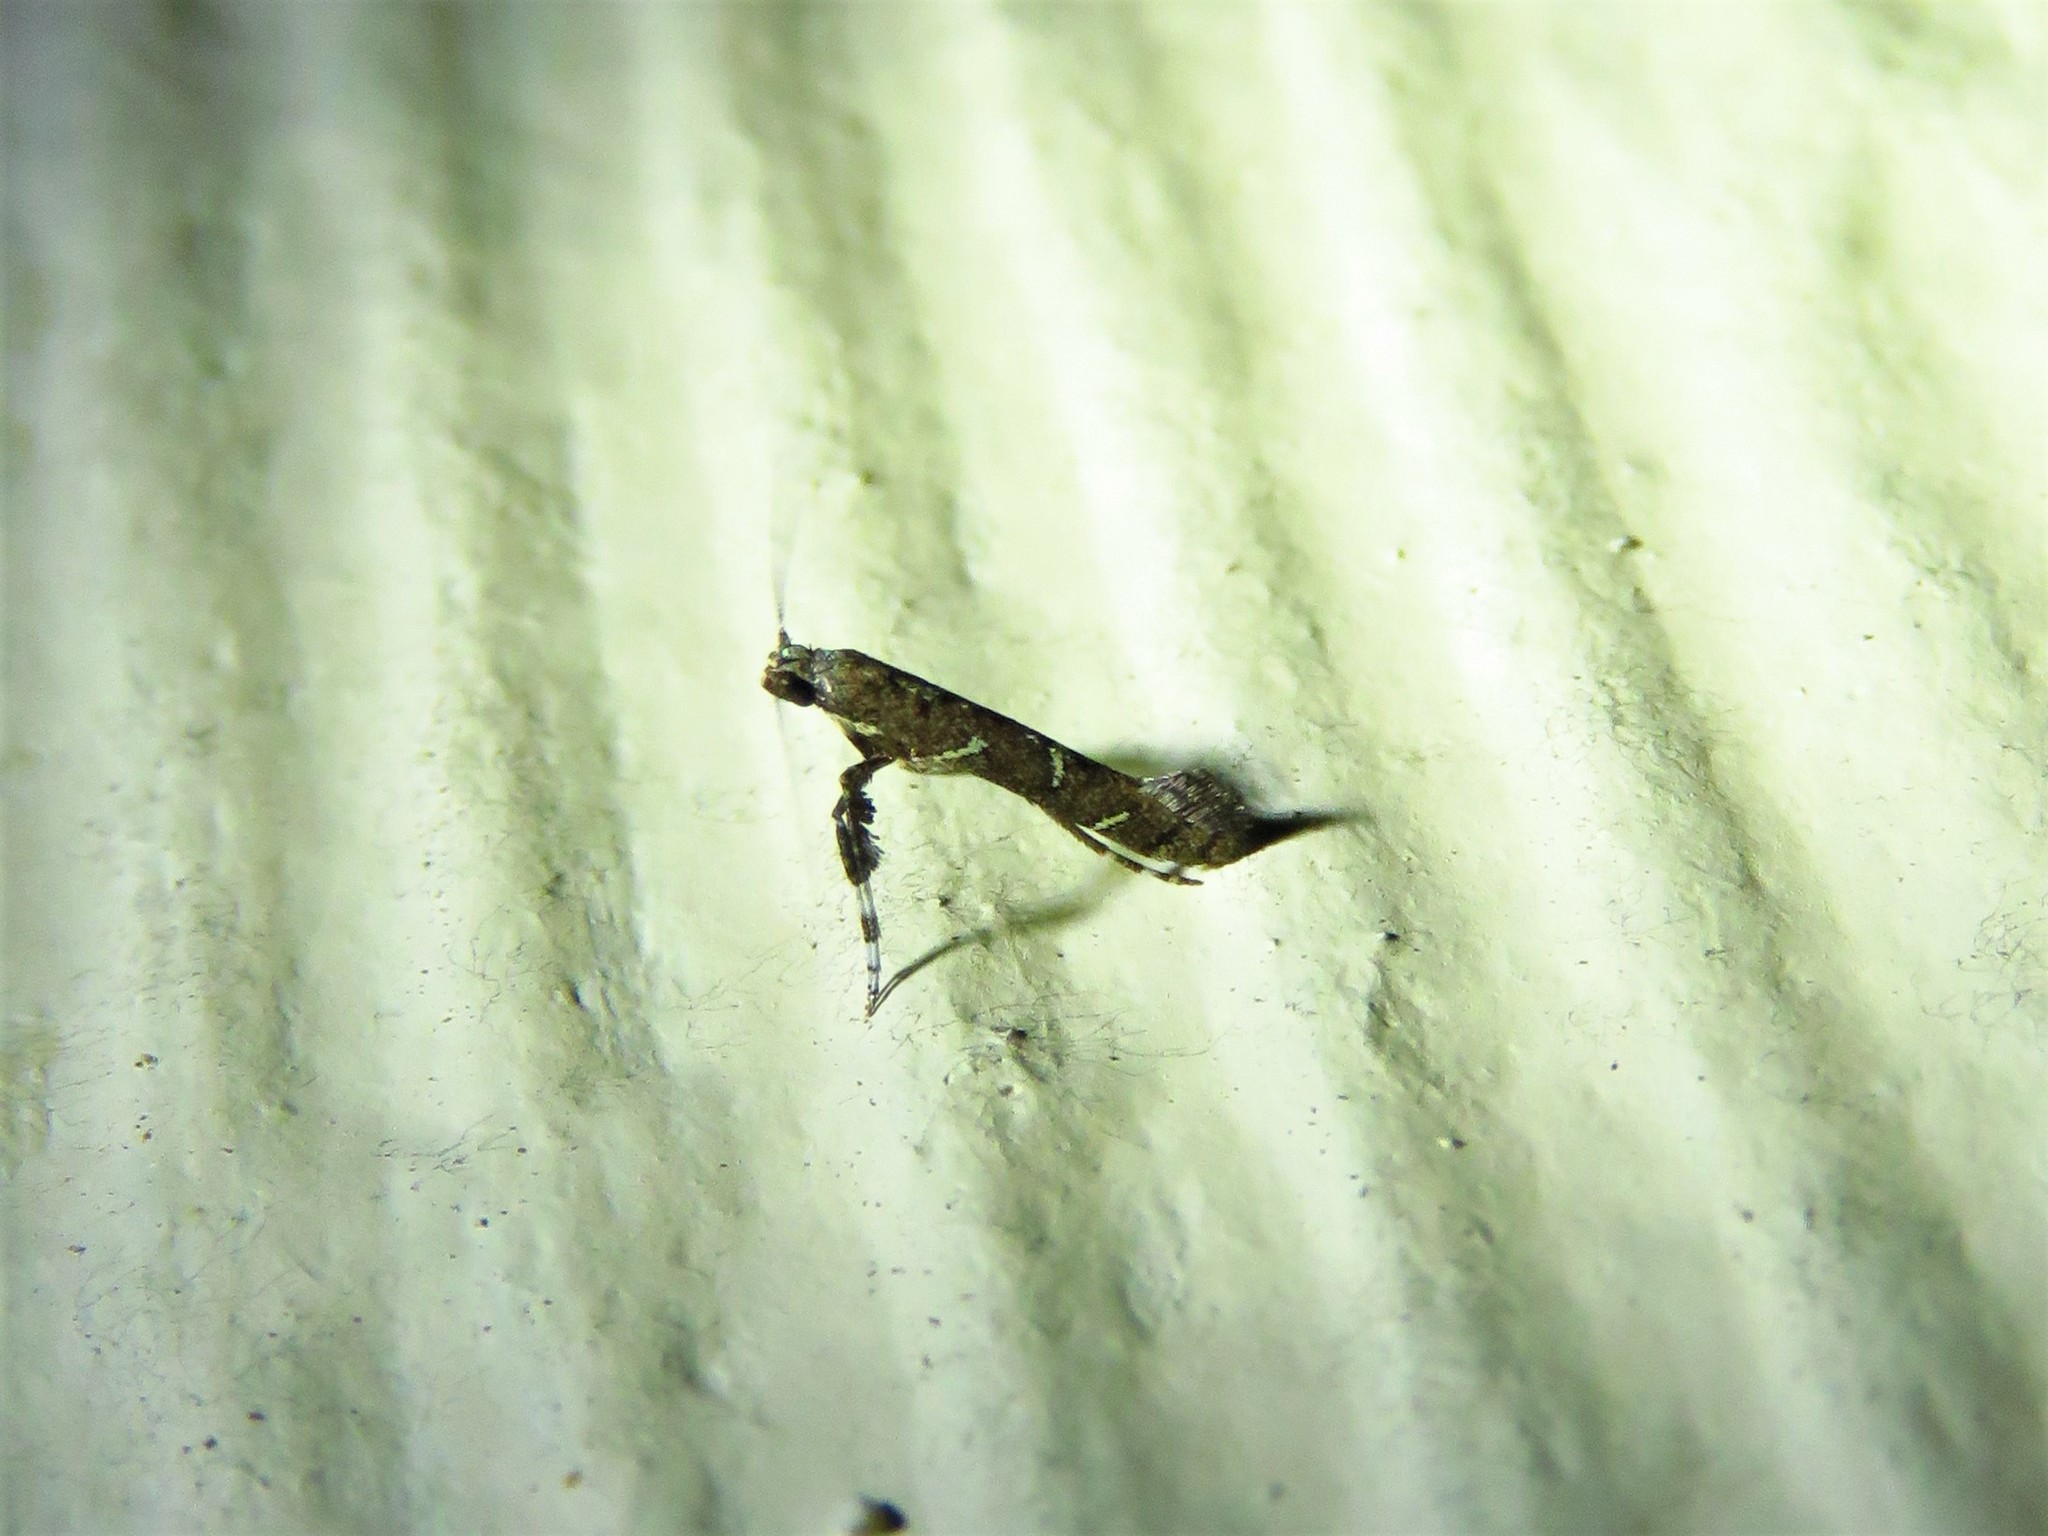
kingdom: Animalia
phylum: Arthropoda
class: Insecta
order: Lepidoptera
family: Gracillariidae
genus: Caloptilia
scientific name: Caloptilia triadicae
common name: Tallow leaf roller
